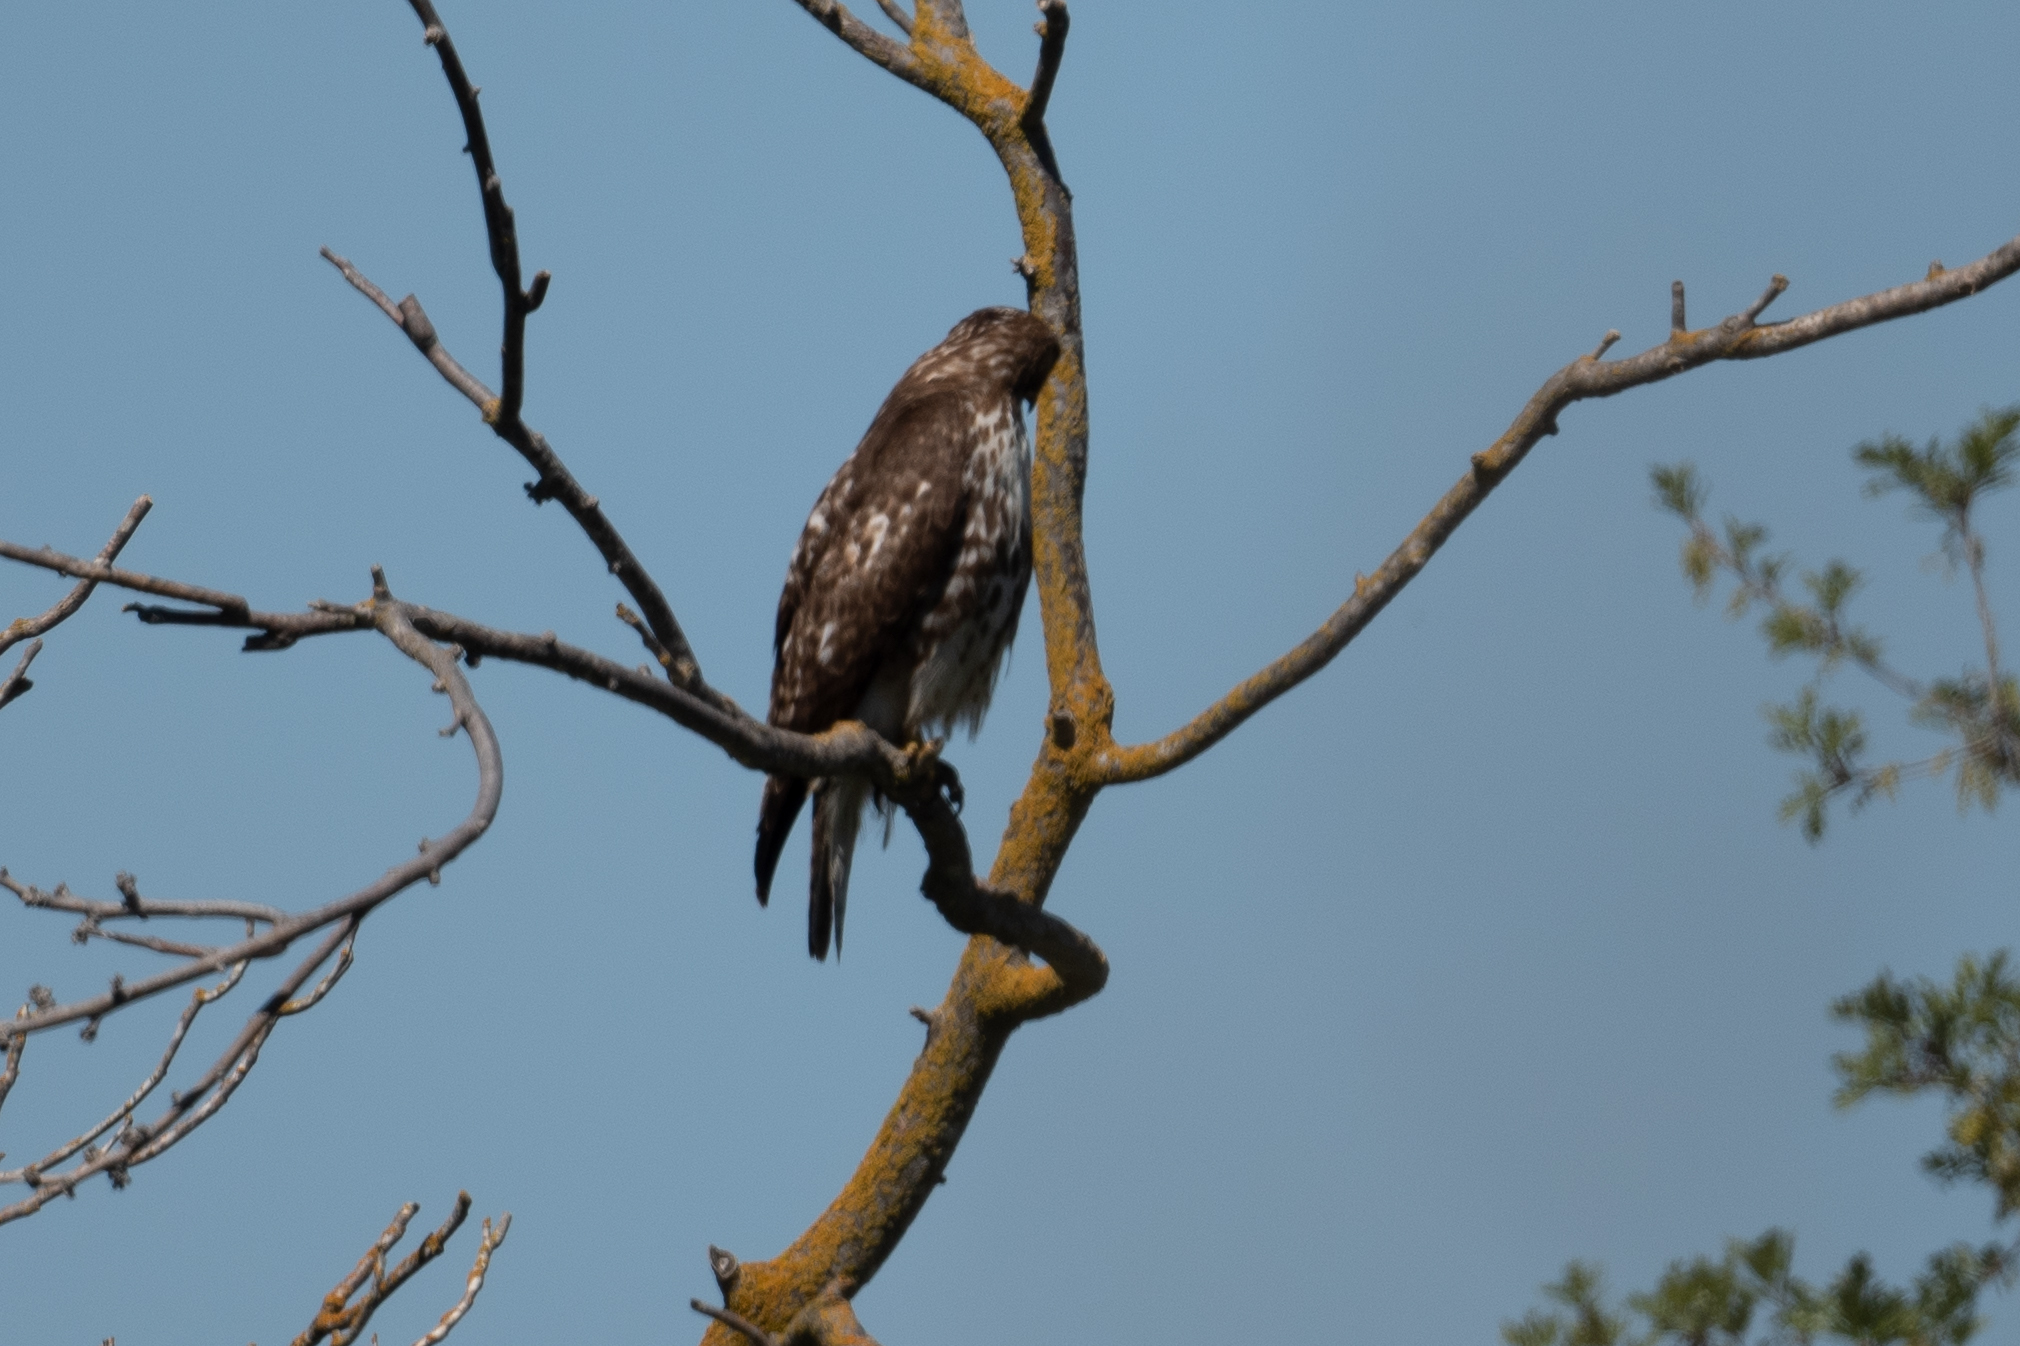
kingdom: Animalia
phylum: Chordata
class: Aves
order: Accipitriformes
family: Accipitridae
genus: Buteo
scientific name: Buteo jamaicensis
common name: Red-tailed hawk
